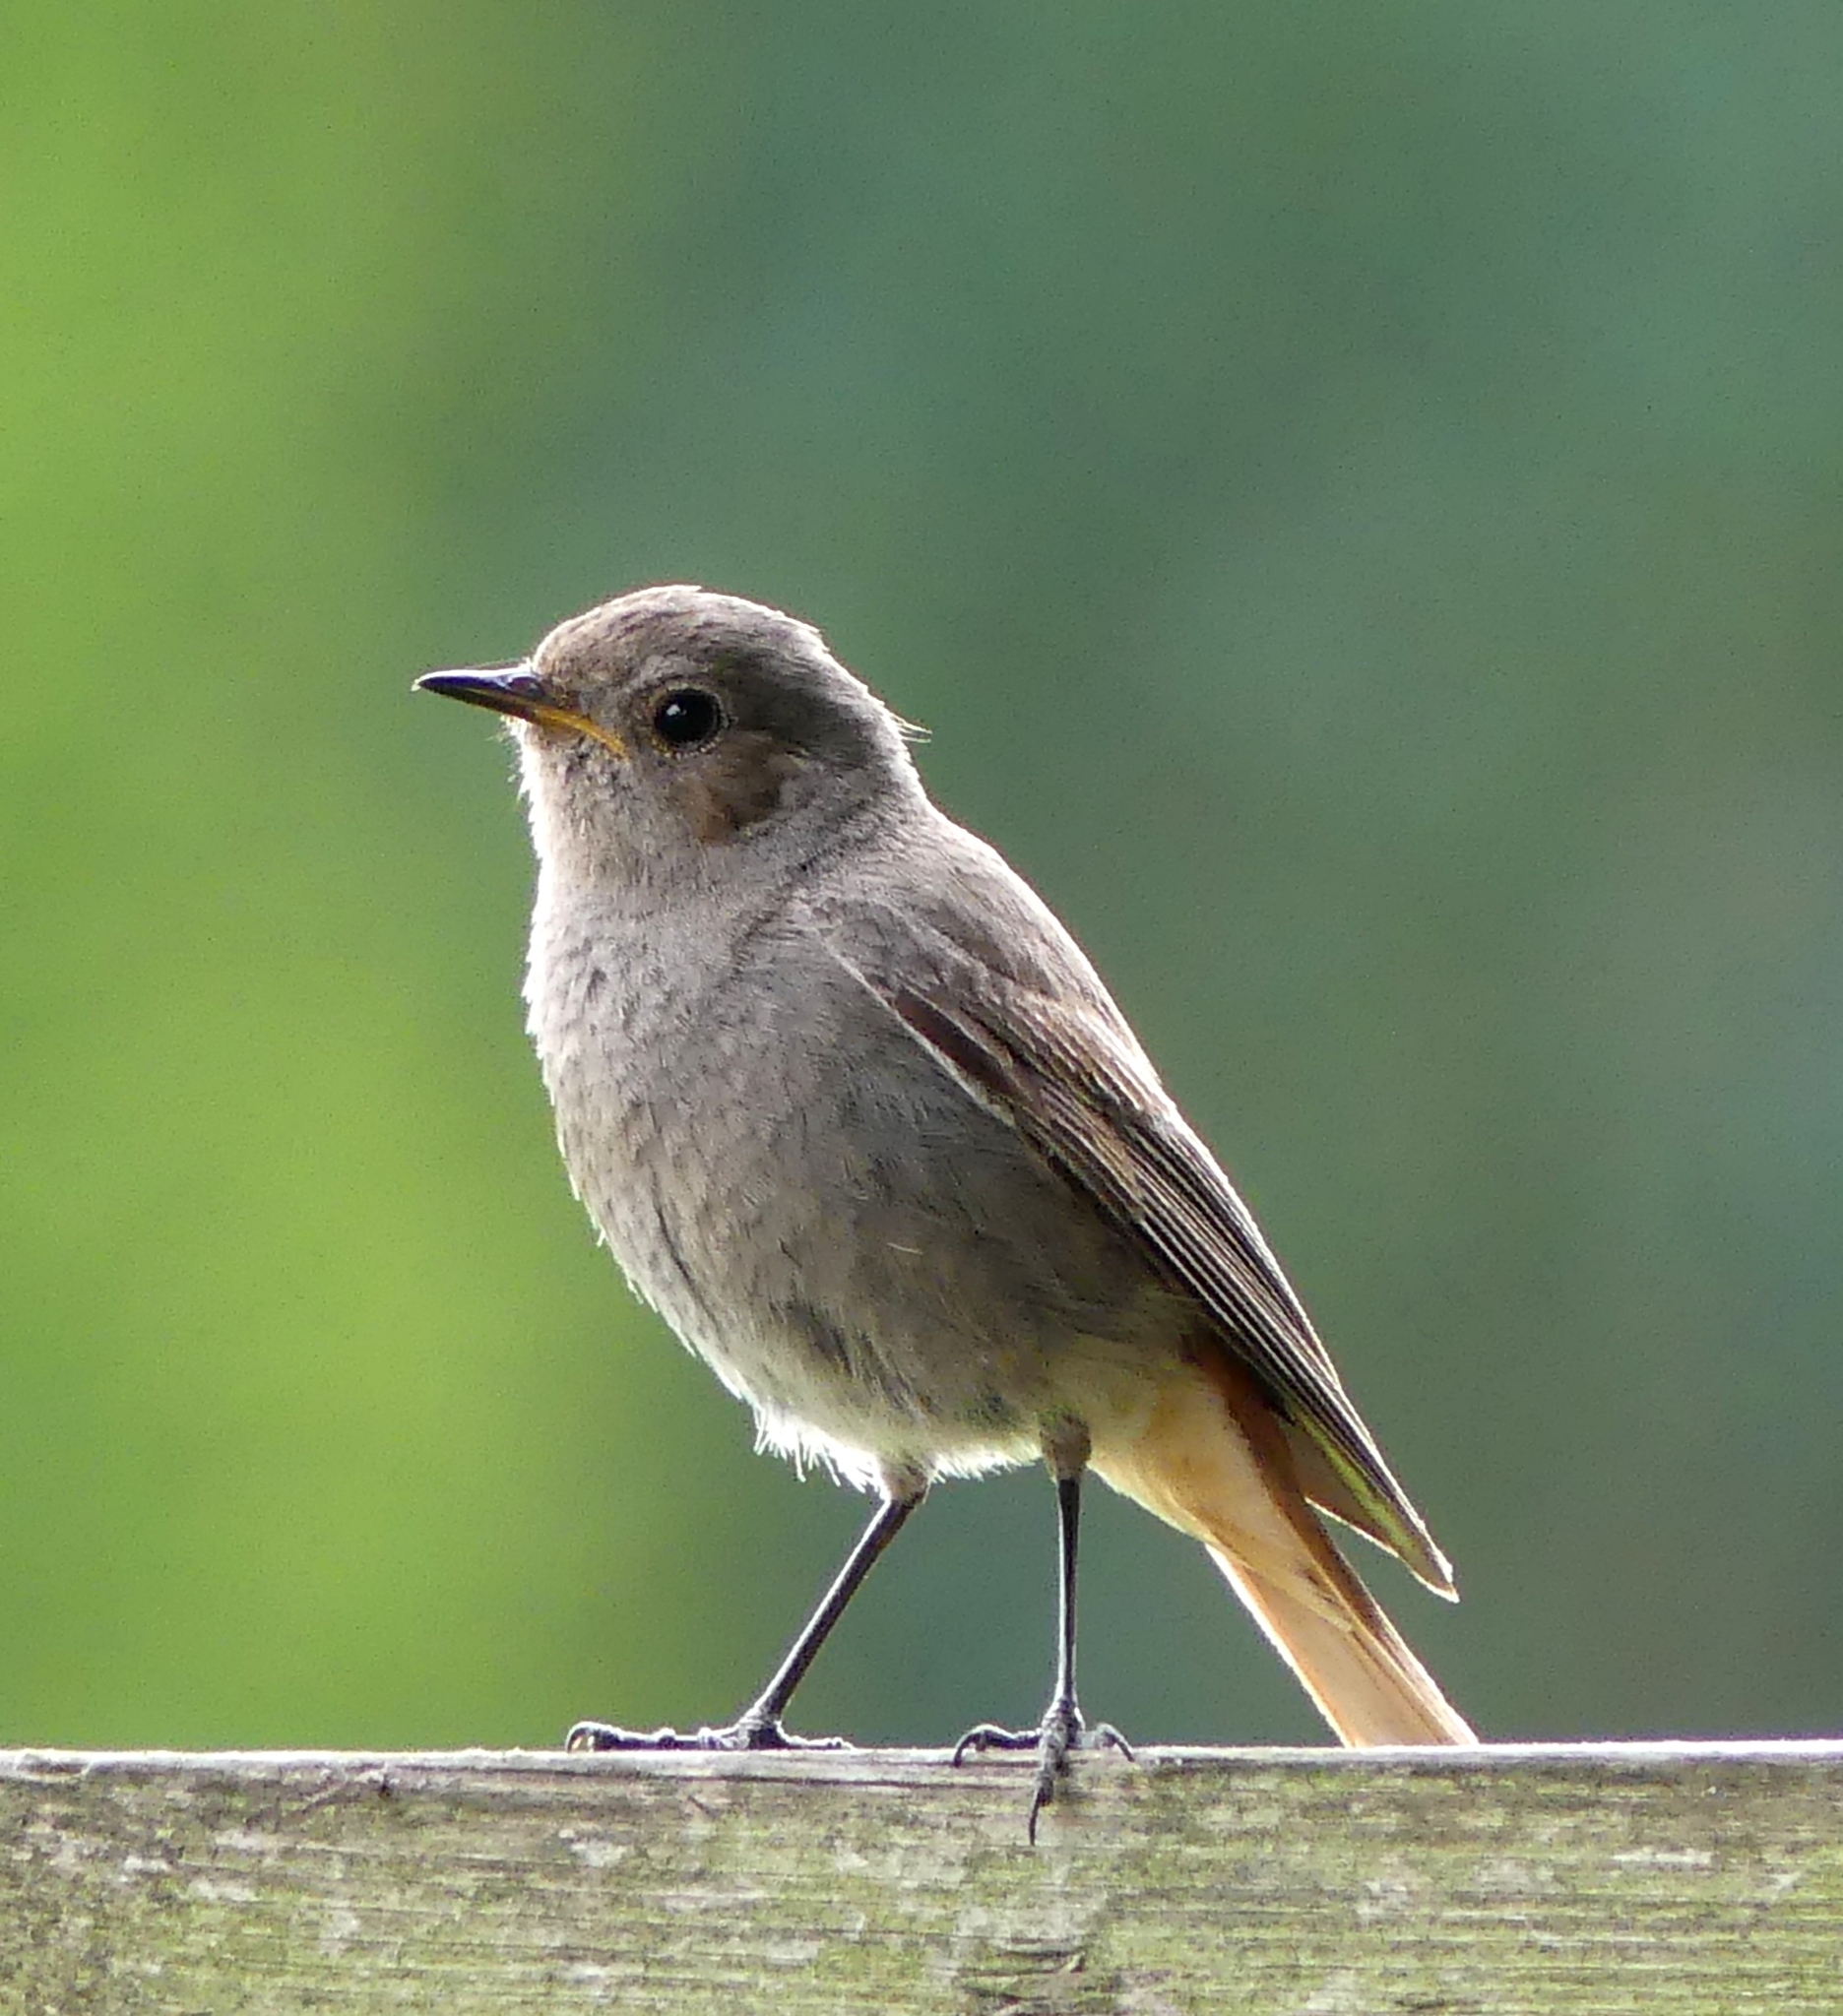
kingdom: Animalia
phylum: Chordata
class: Aves
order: Passeriformes
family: Muscicapidae
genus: Phoenicurus
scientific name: Phoenicurus ochruros
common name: Black redstart
